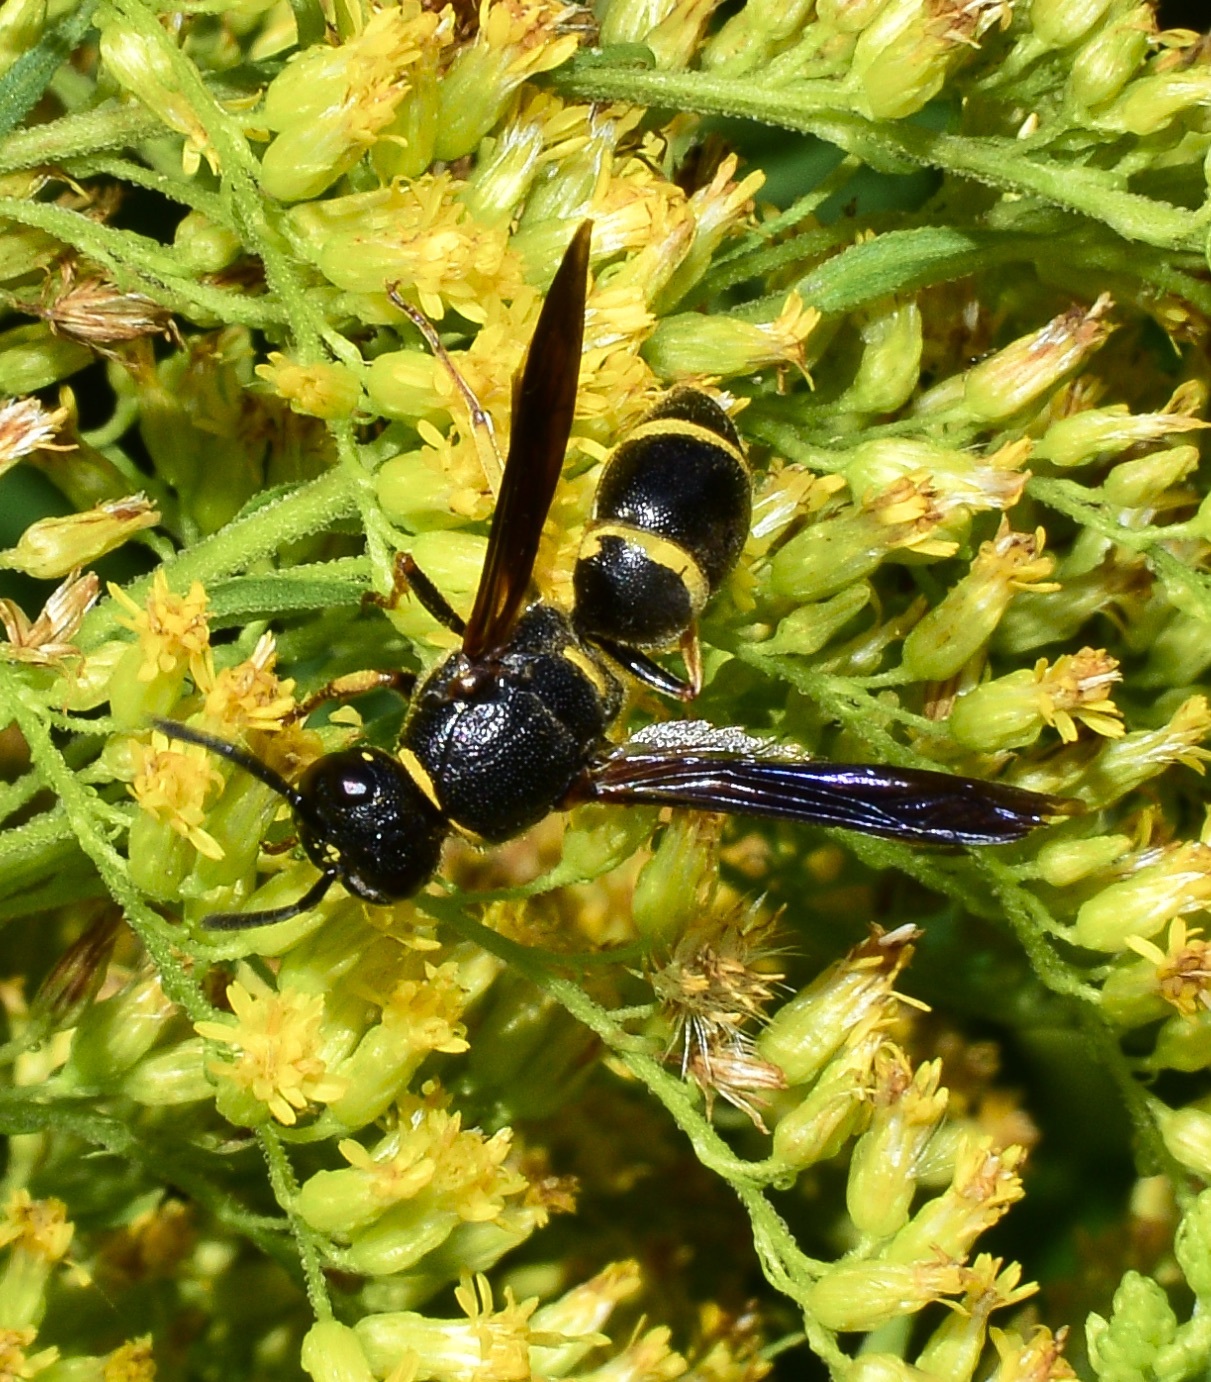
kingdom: Animalia
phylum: Arthropoda
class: Insecta
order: Hymenoptera
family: Eumenidae
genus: Euodynerus
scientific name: Euodynerus
